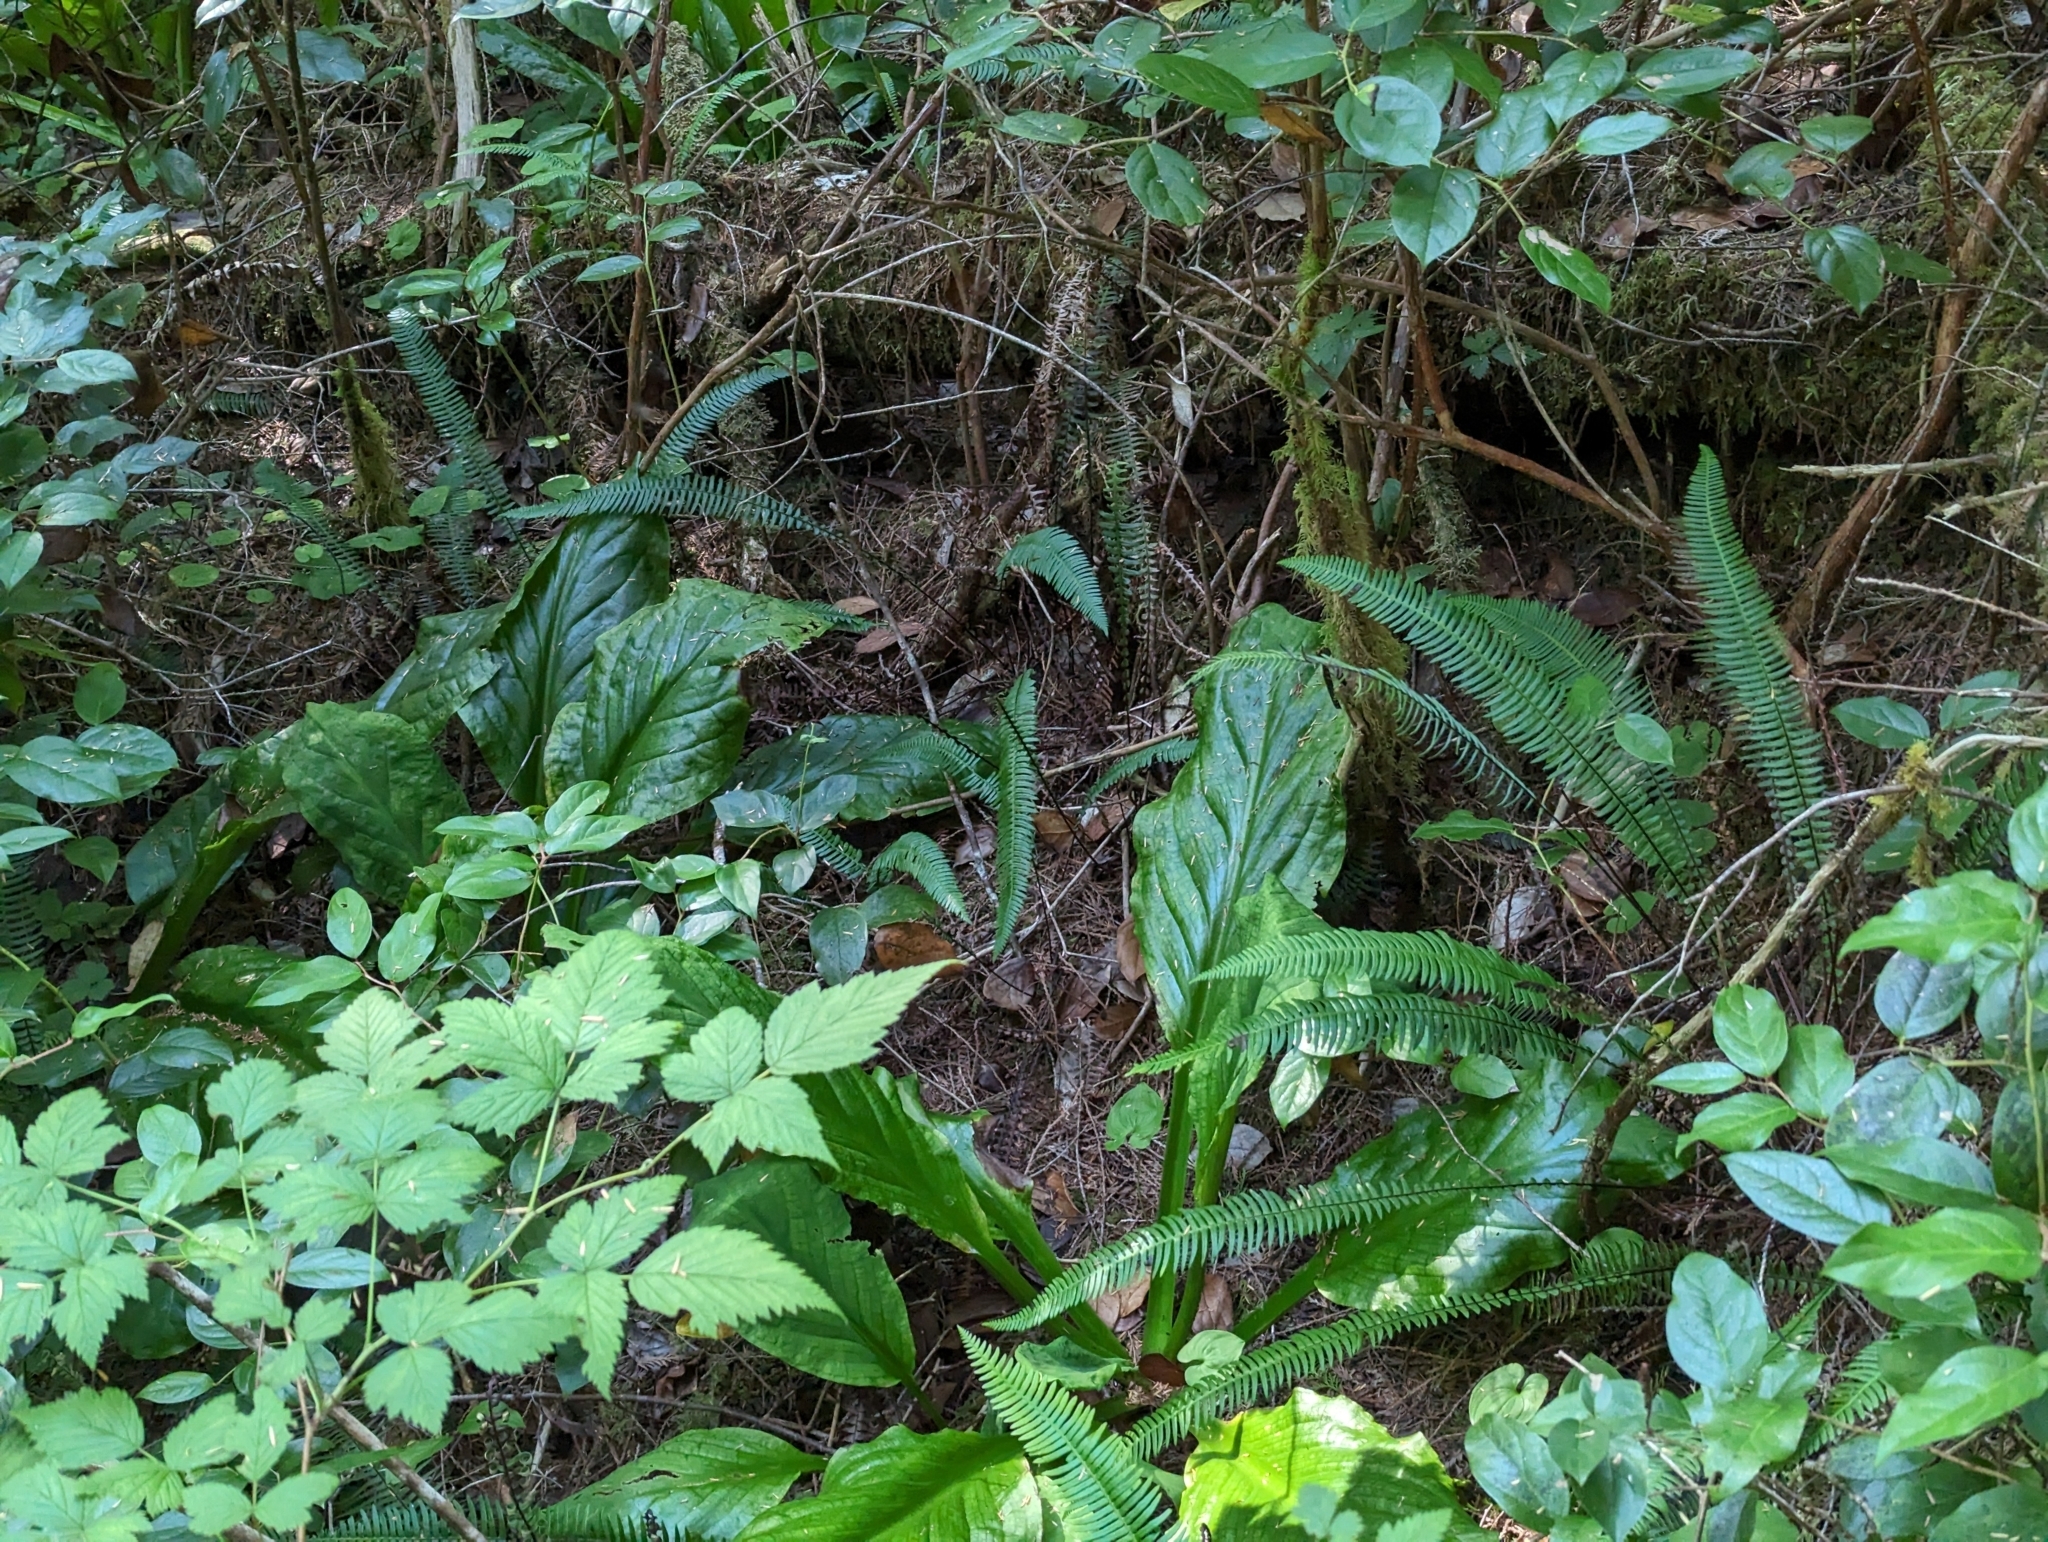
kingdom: Plantae
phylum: Tracheophyta
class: Liliopsida
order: Alismatales
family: Araceae
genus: Lysichiton
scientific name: Lysichiton americanus
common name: American skunk cabbage
